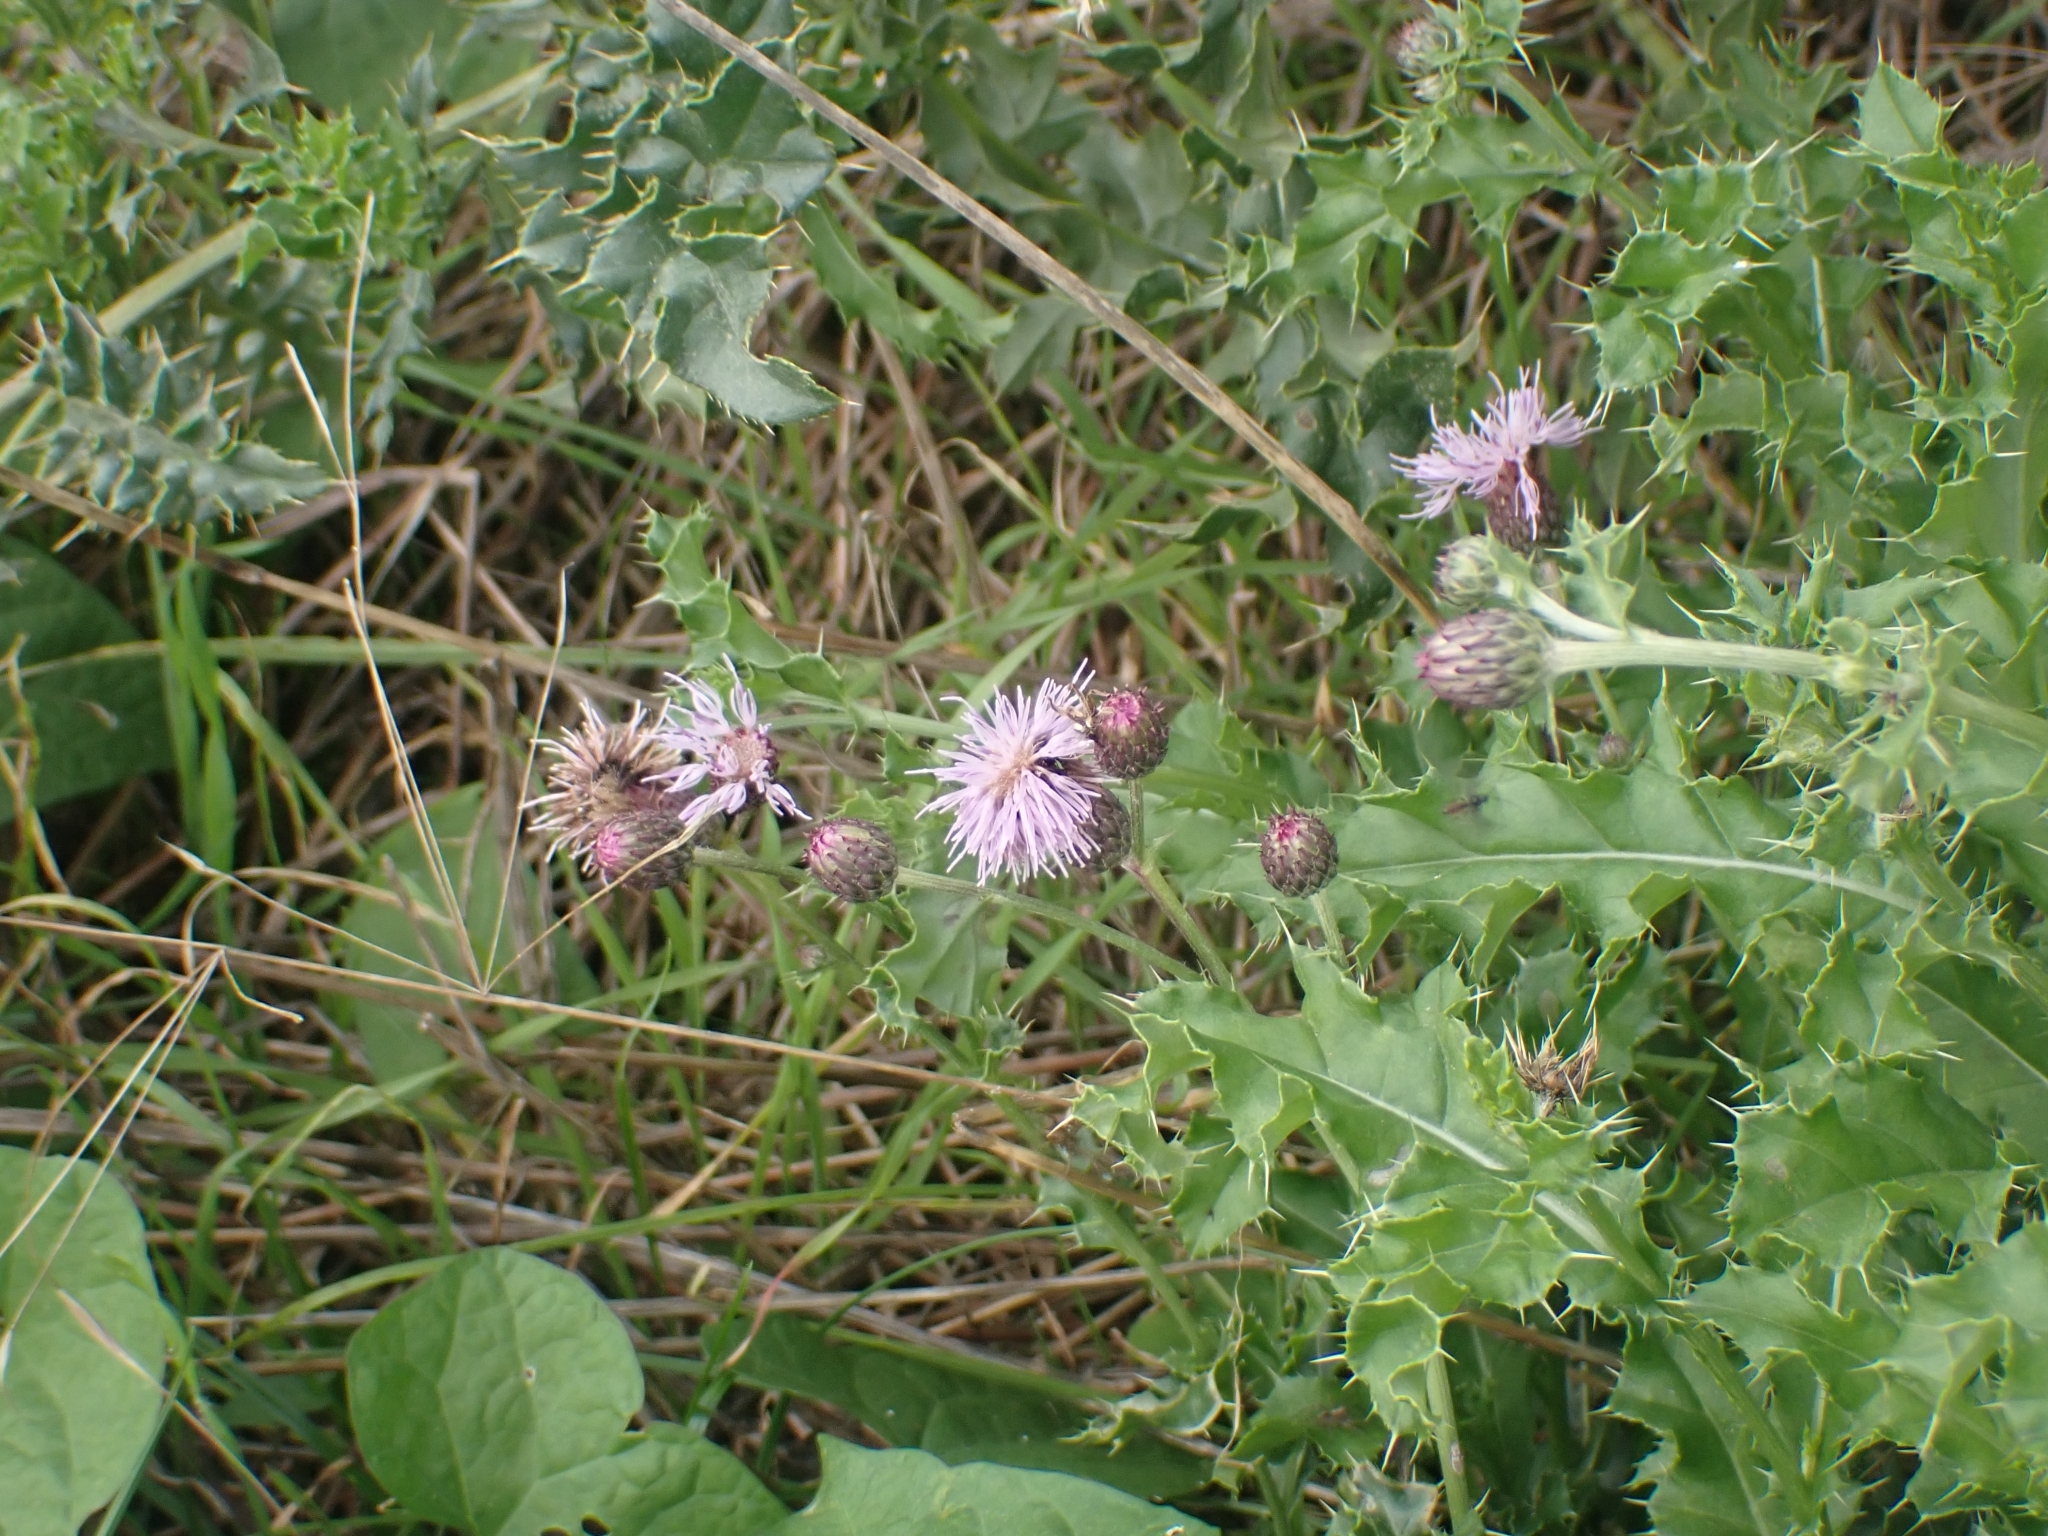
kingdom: Plantae
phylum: Tracheophyta
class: Magnoliopsida
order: Asterales
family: Asteraceae
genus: Cirsium
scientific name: Cirsium arvense
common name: Creeping thistle
